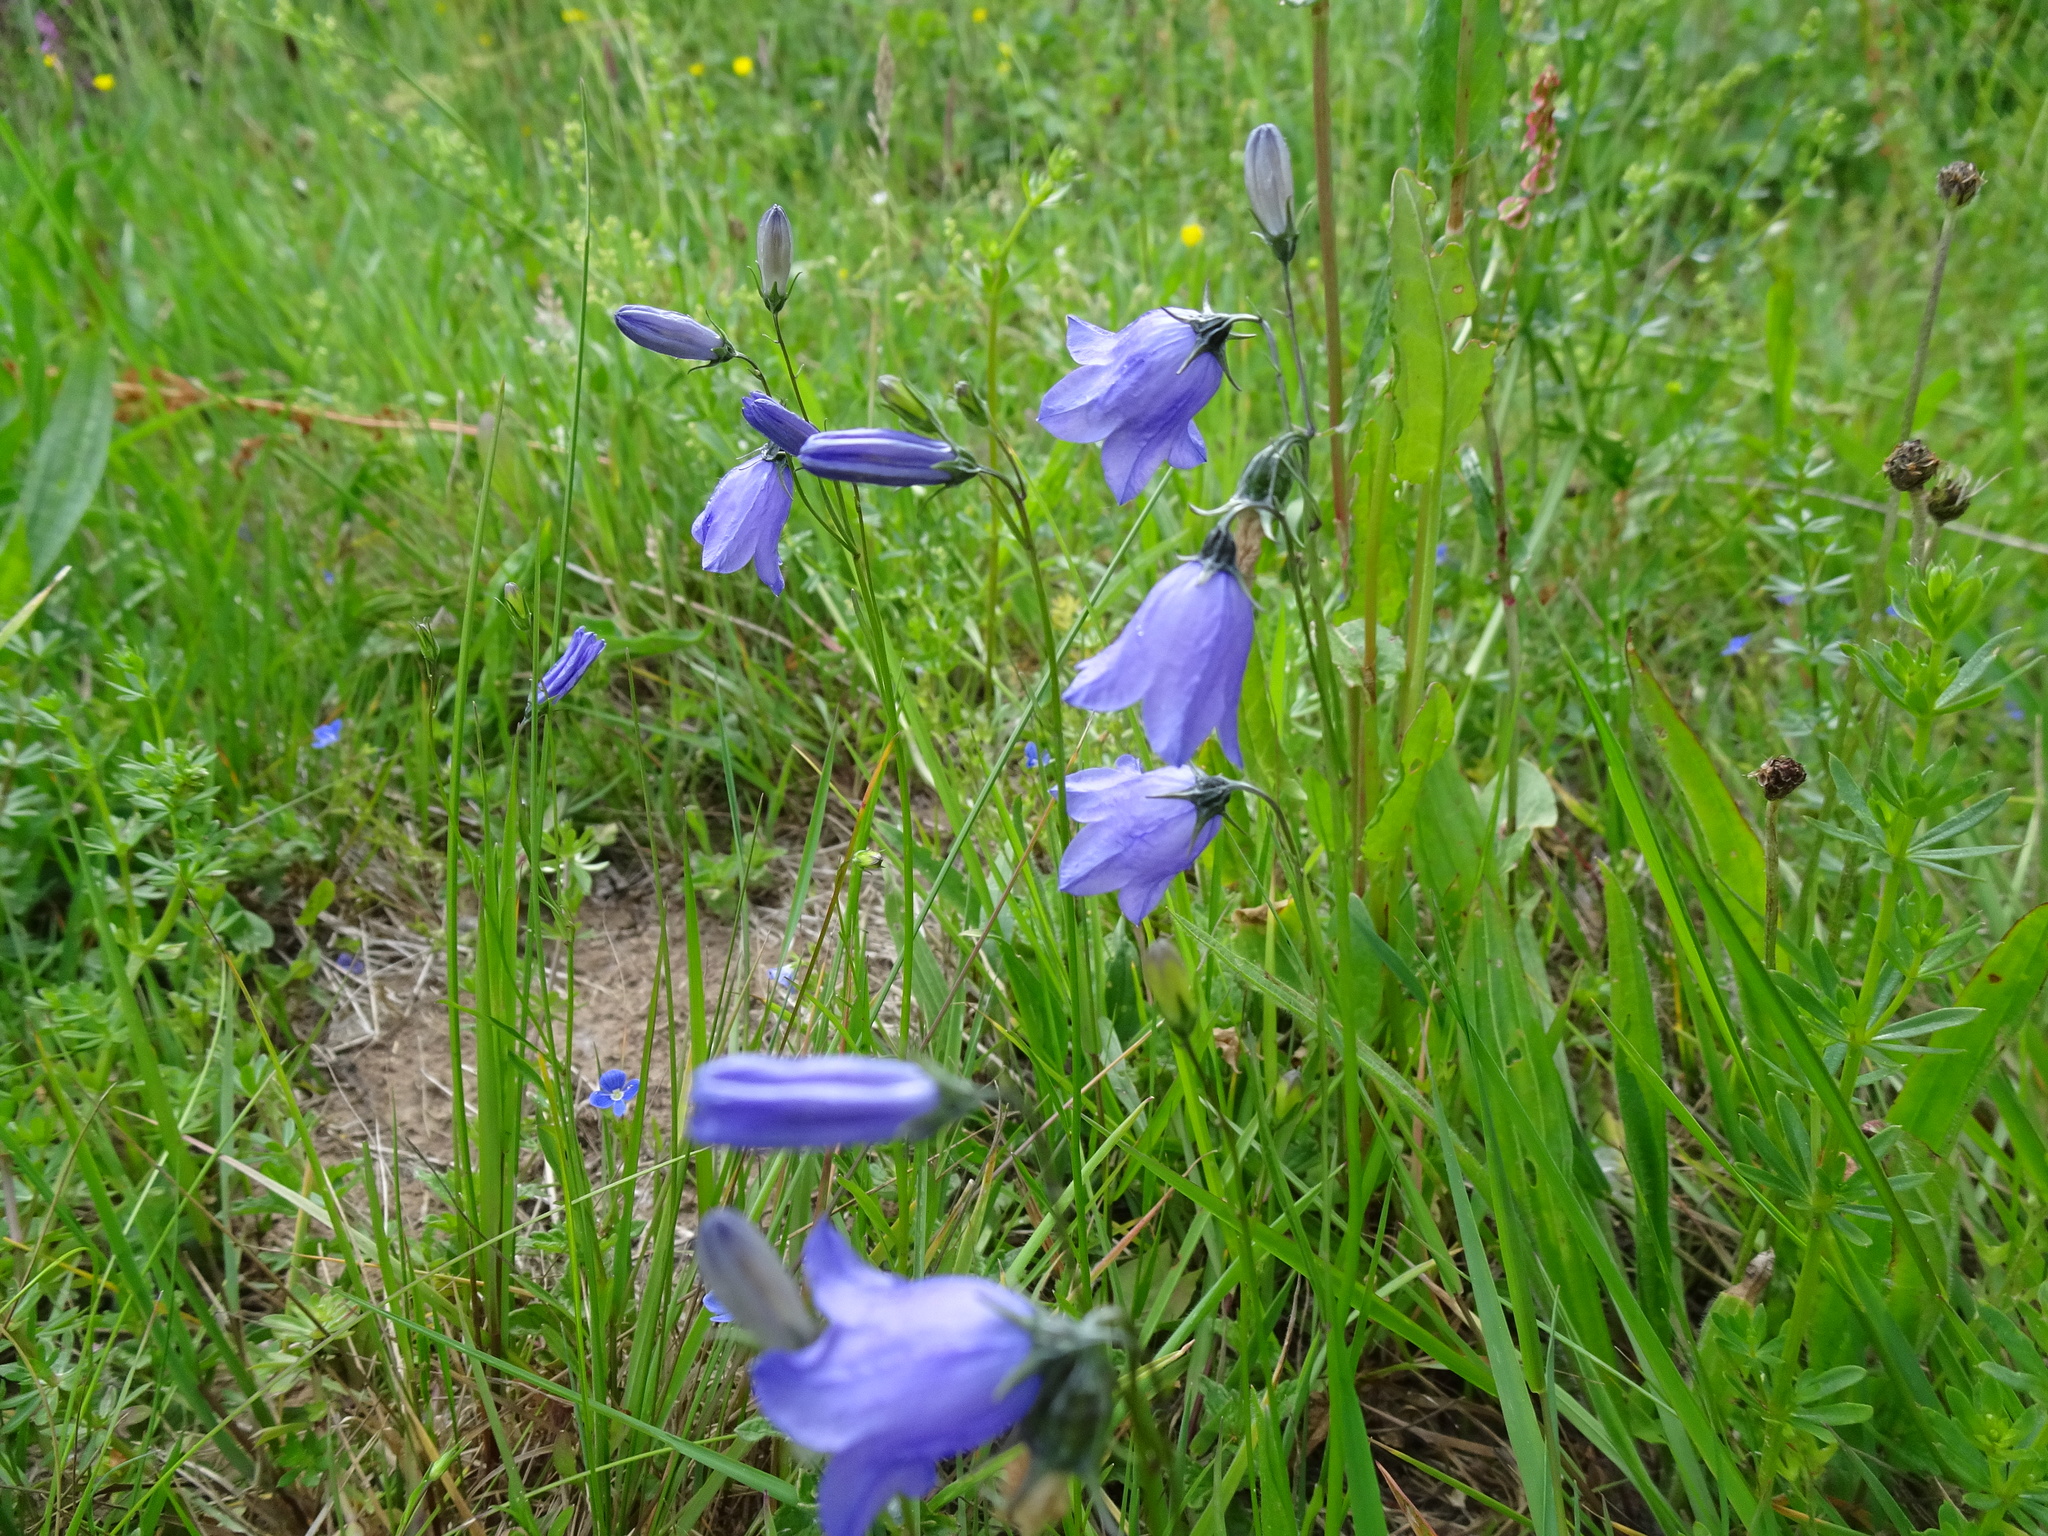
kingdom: Plantae
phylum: Tracheophyta
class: Magnoliopsida
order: Asterales
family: Campanulaceae
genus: Campanula
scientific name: Campanula rotundifolia
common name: Harebell
